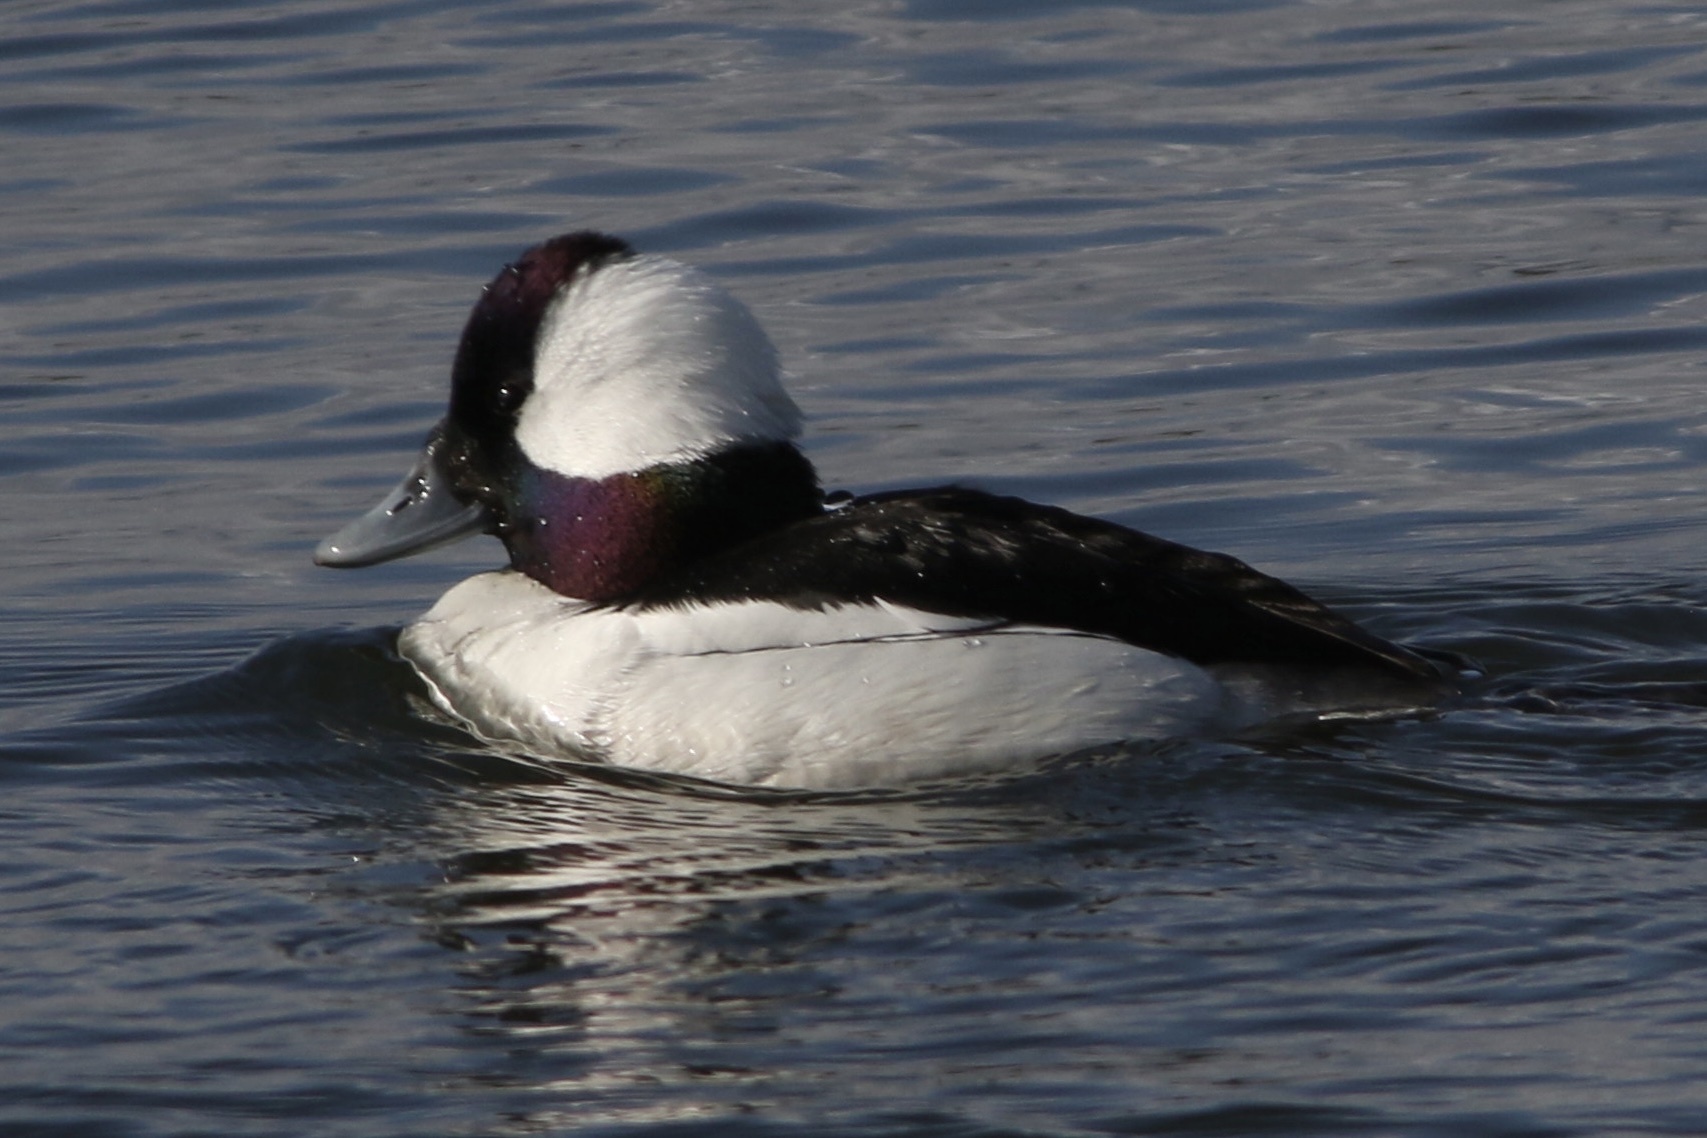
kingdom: Animalia
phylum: Chordata
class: Aves
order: Anseriformes
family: Anatidae
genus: Bucephala
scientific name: Bucephala albeola
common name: Bufflehead
